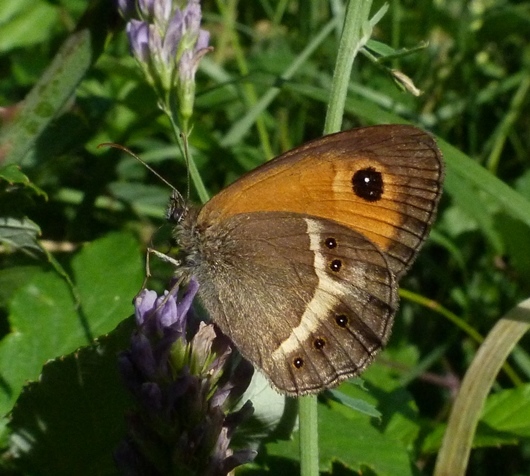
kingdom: Animalia
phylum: Arthropoda
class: Insecta
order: Lepidoptera
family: Nymphalidae
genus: Pyronia
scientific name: Pyronia bathseba
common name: Spanish gatekeeper
